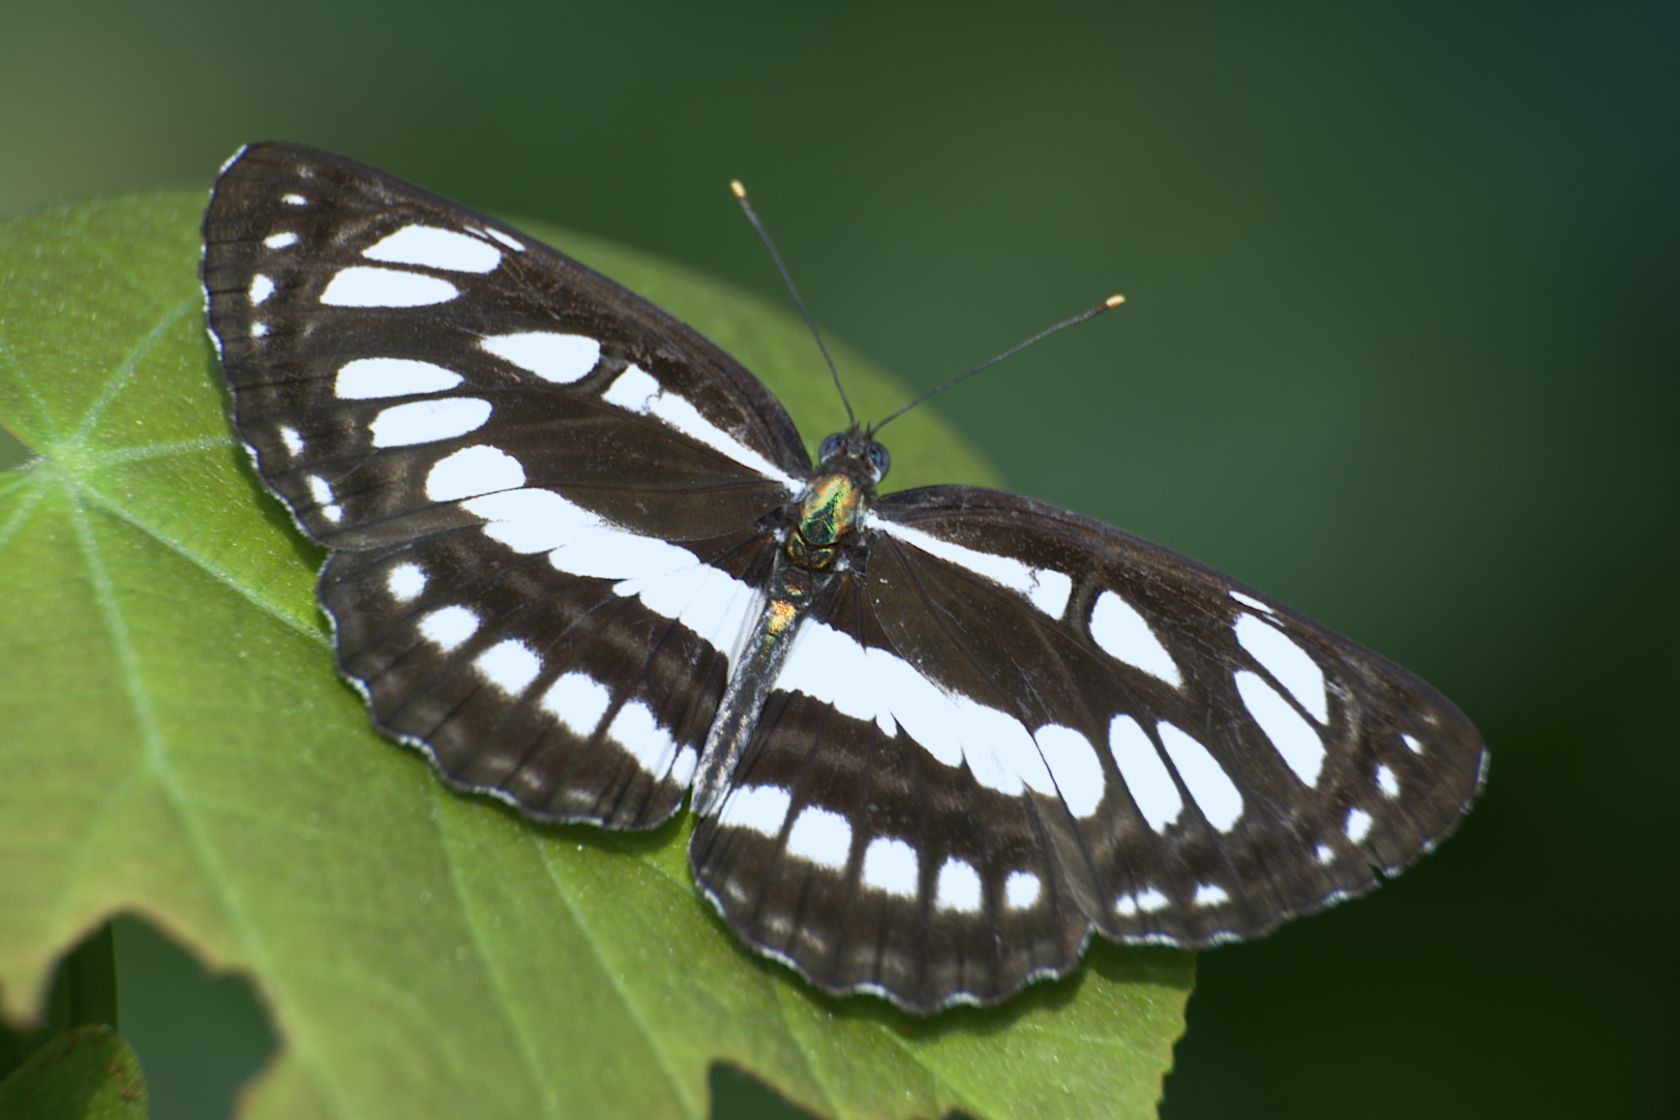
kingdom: Animalia
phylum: Arthropoda
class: Insecta
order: Lepidoptera
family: Nymphalidae
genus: Neptis
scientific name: Neptis hylas
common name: Common sailer
